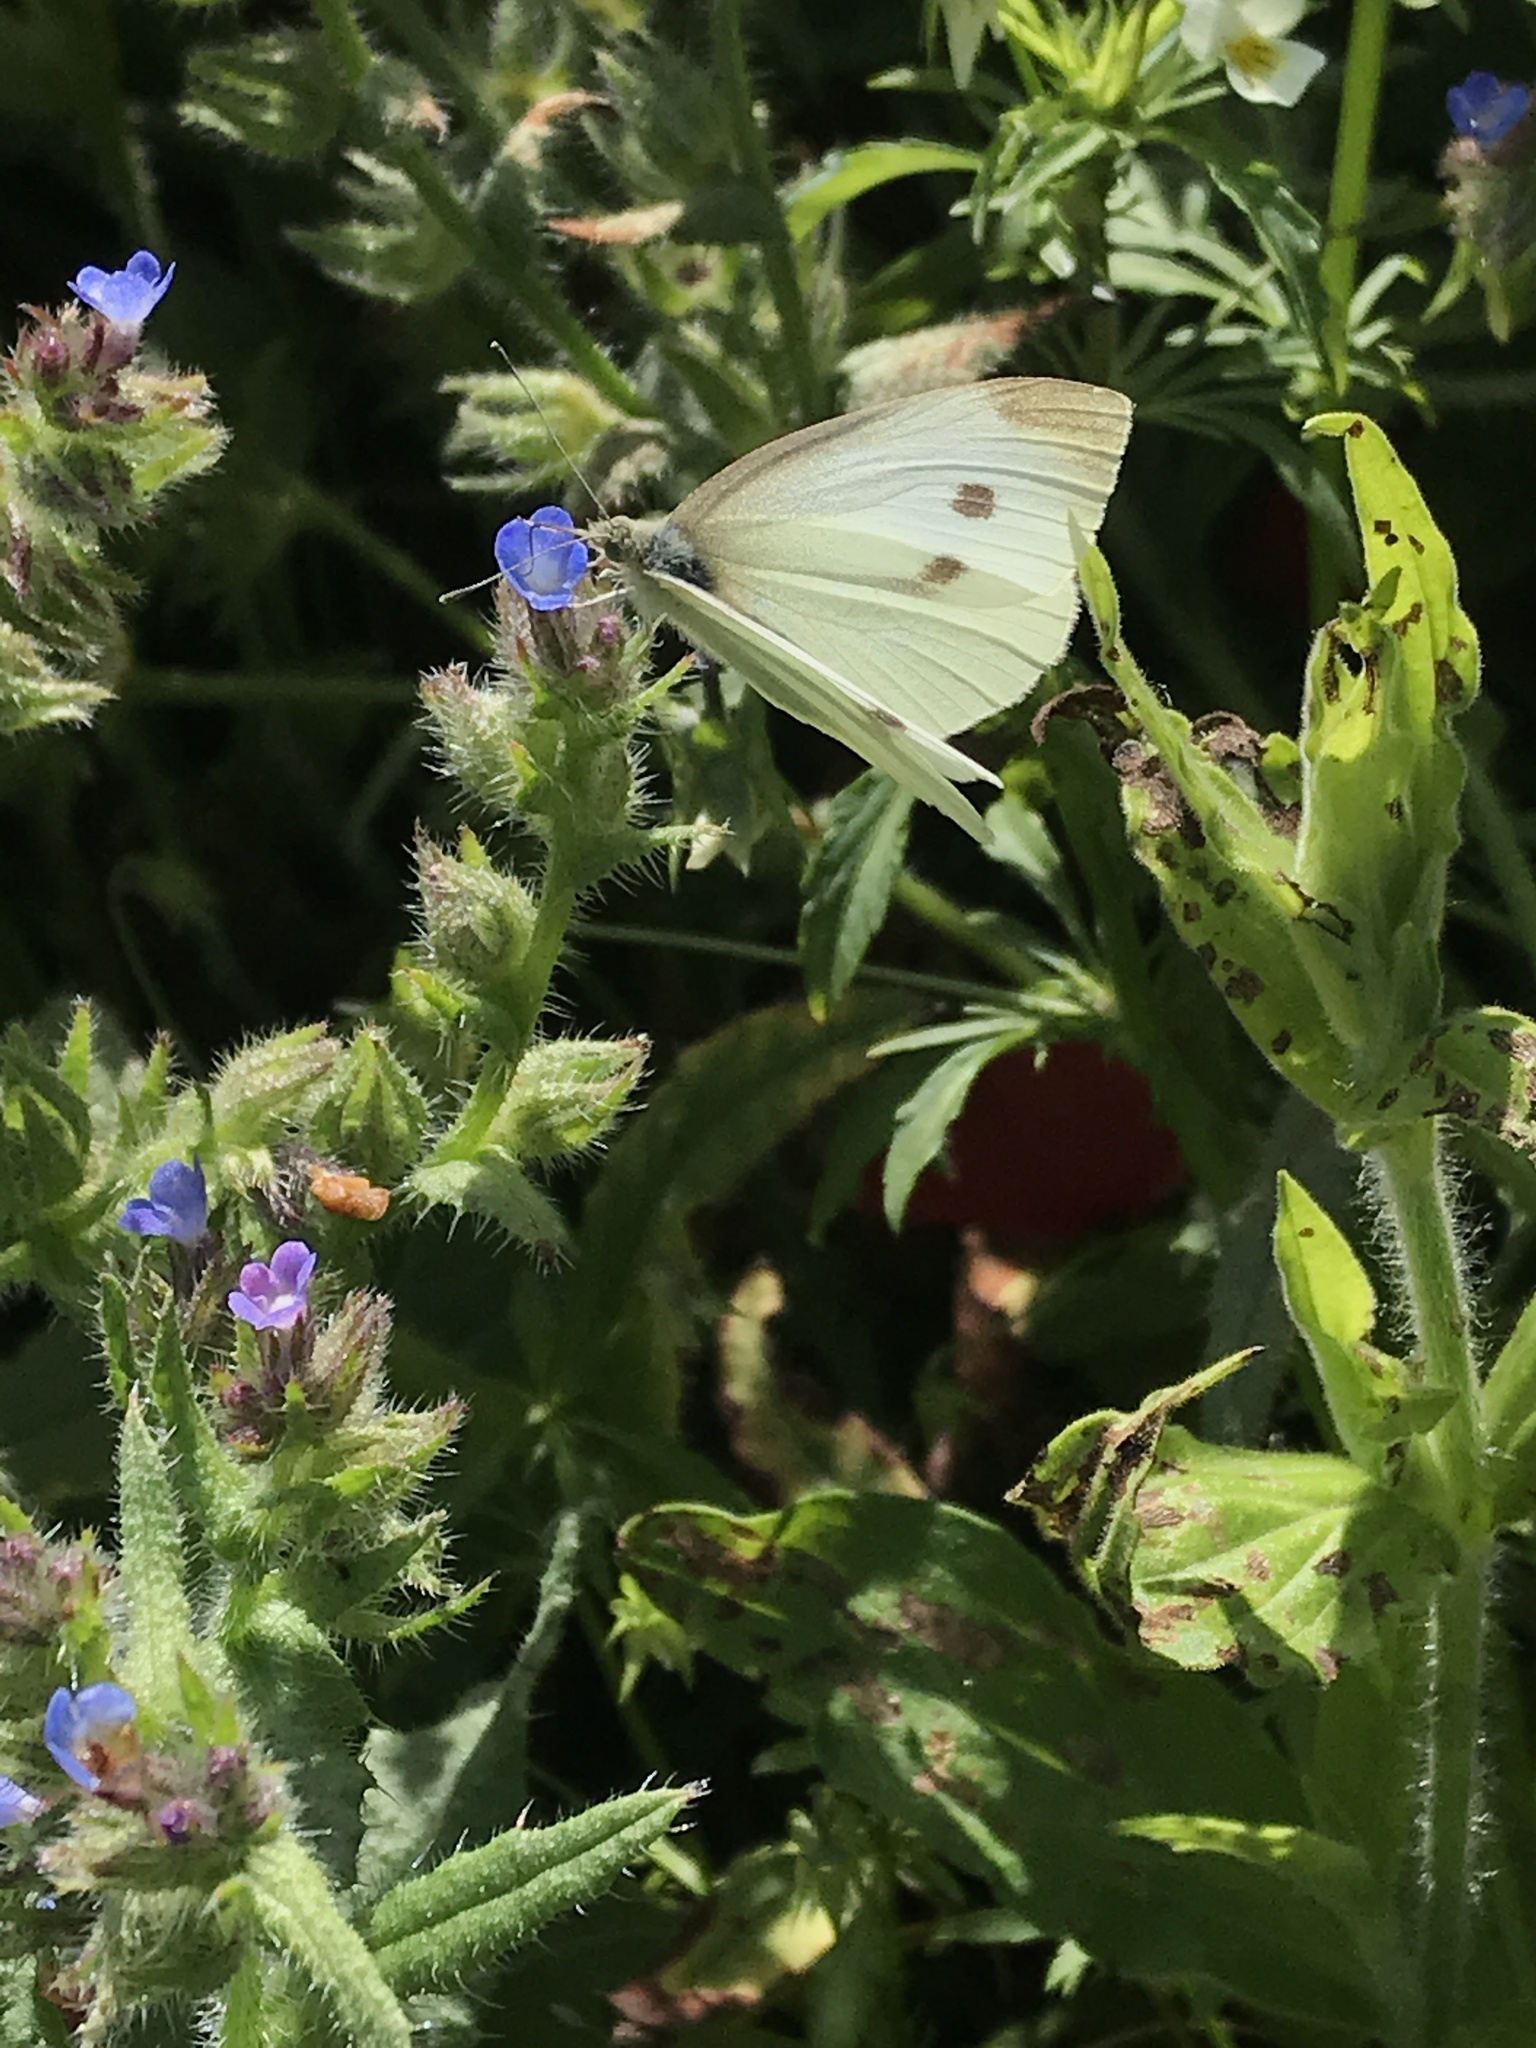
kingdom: Animalia
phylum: Arthropoda
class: Insecta
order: Lepidoptera
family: Pieridae
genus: Pieris
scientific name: Pieris rapae
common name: Small white
